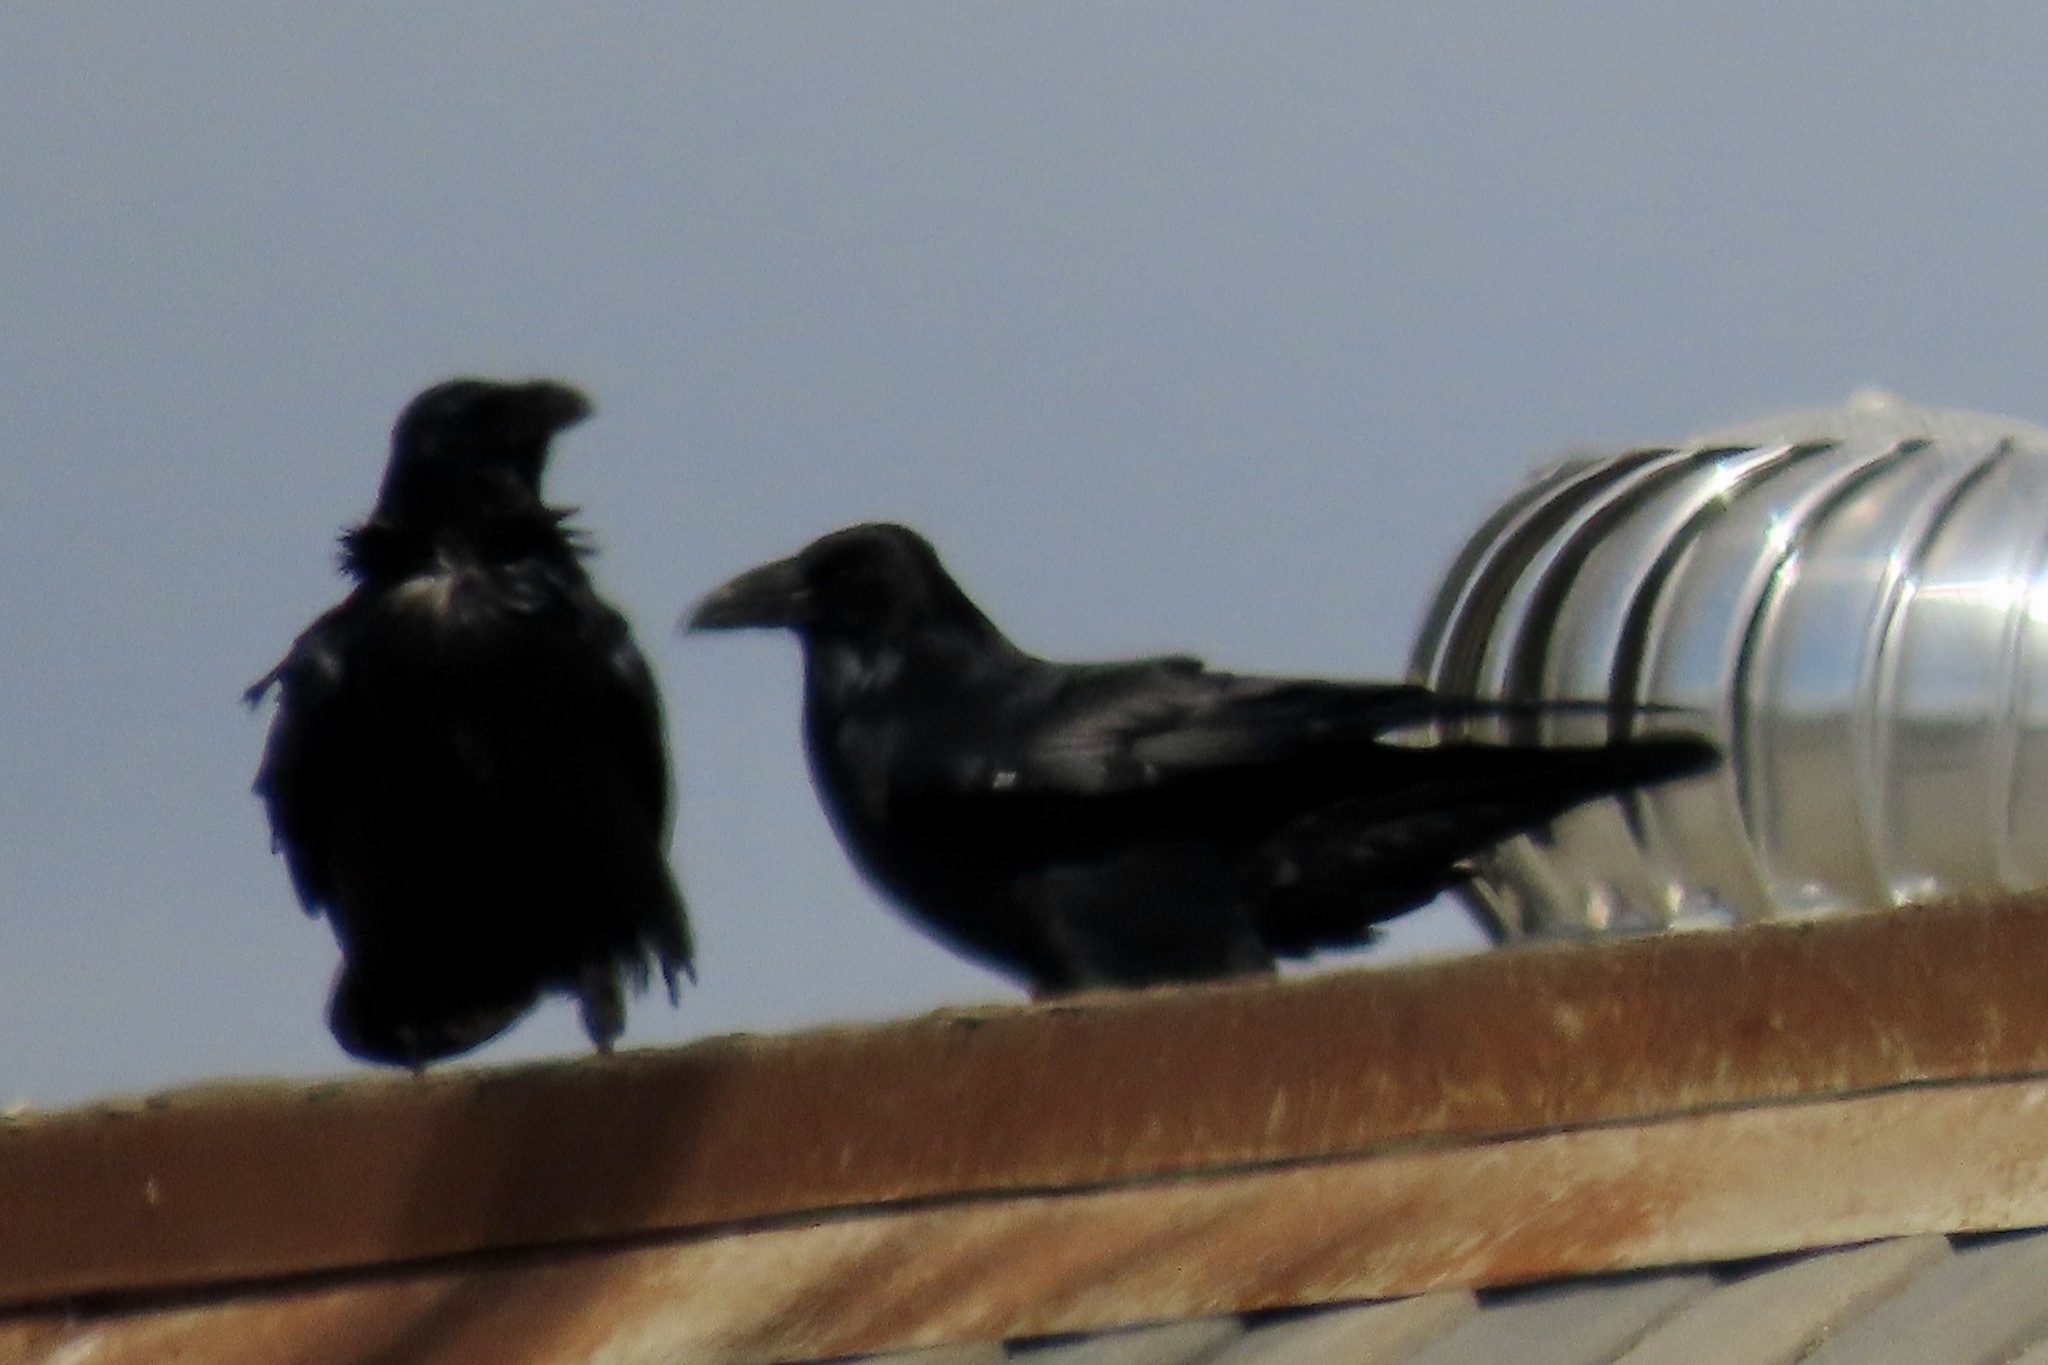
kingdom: Animalia
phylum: Chordata
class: Aves
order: Passeriformes
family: Corvidae
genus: Corvus
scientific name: Corvus corax
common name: Common raven
